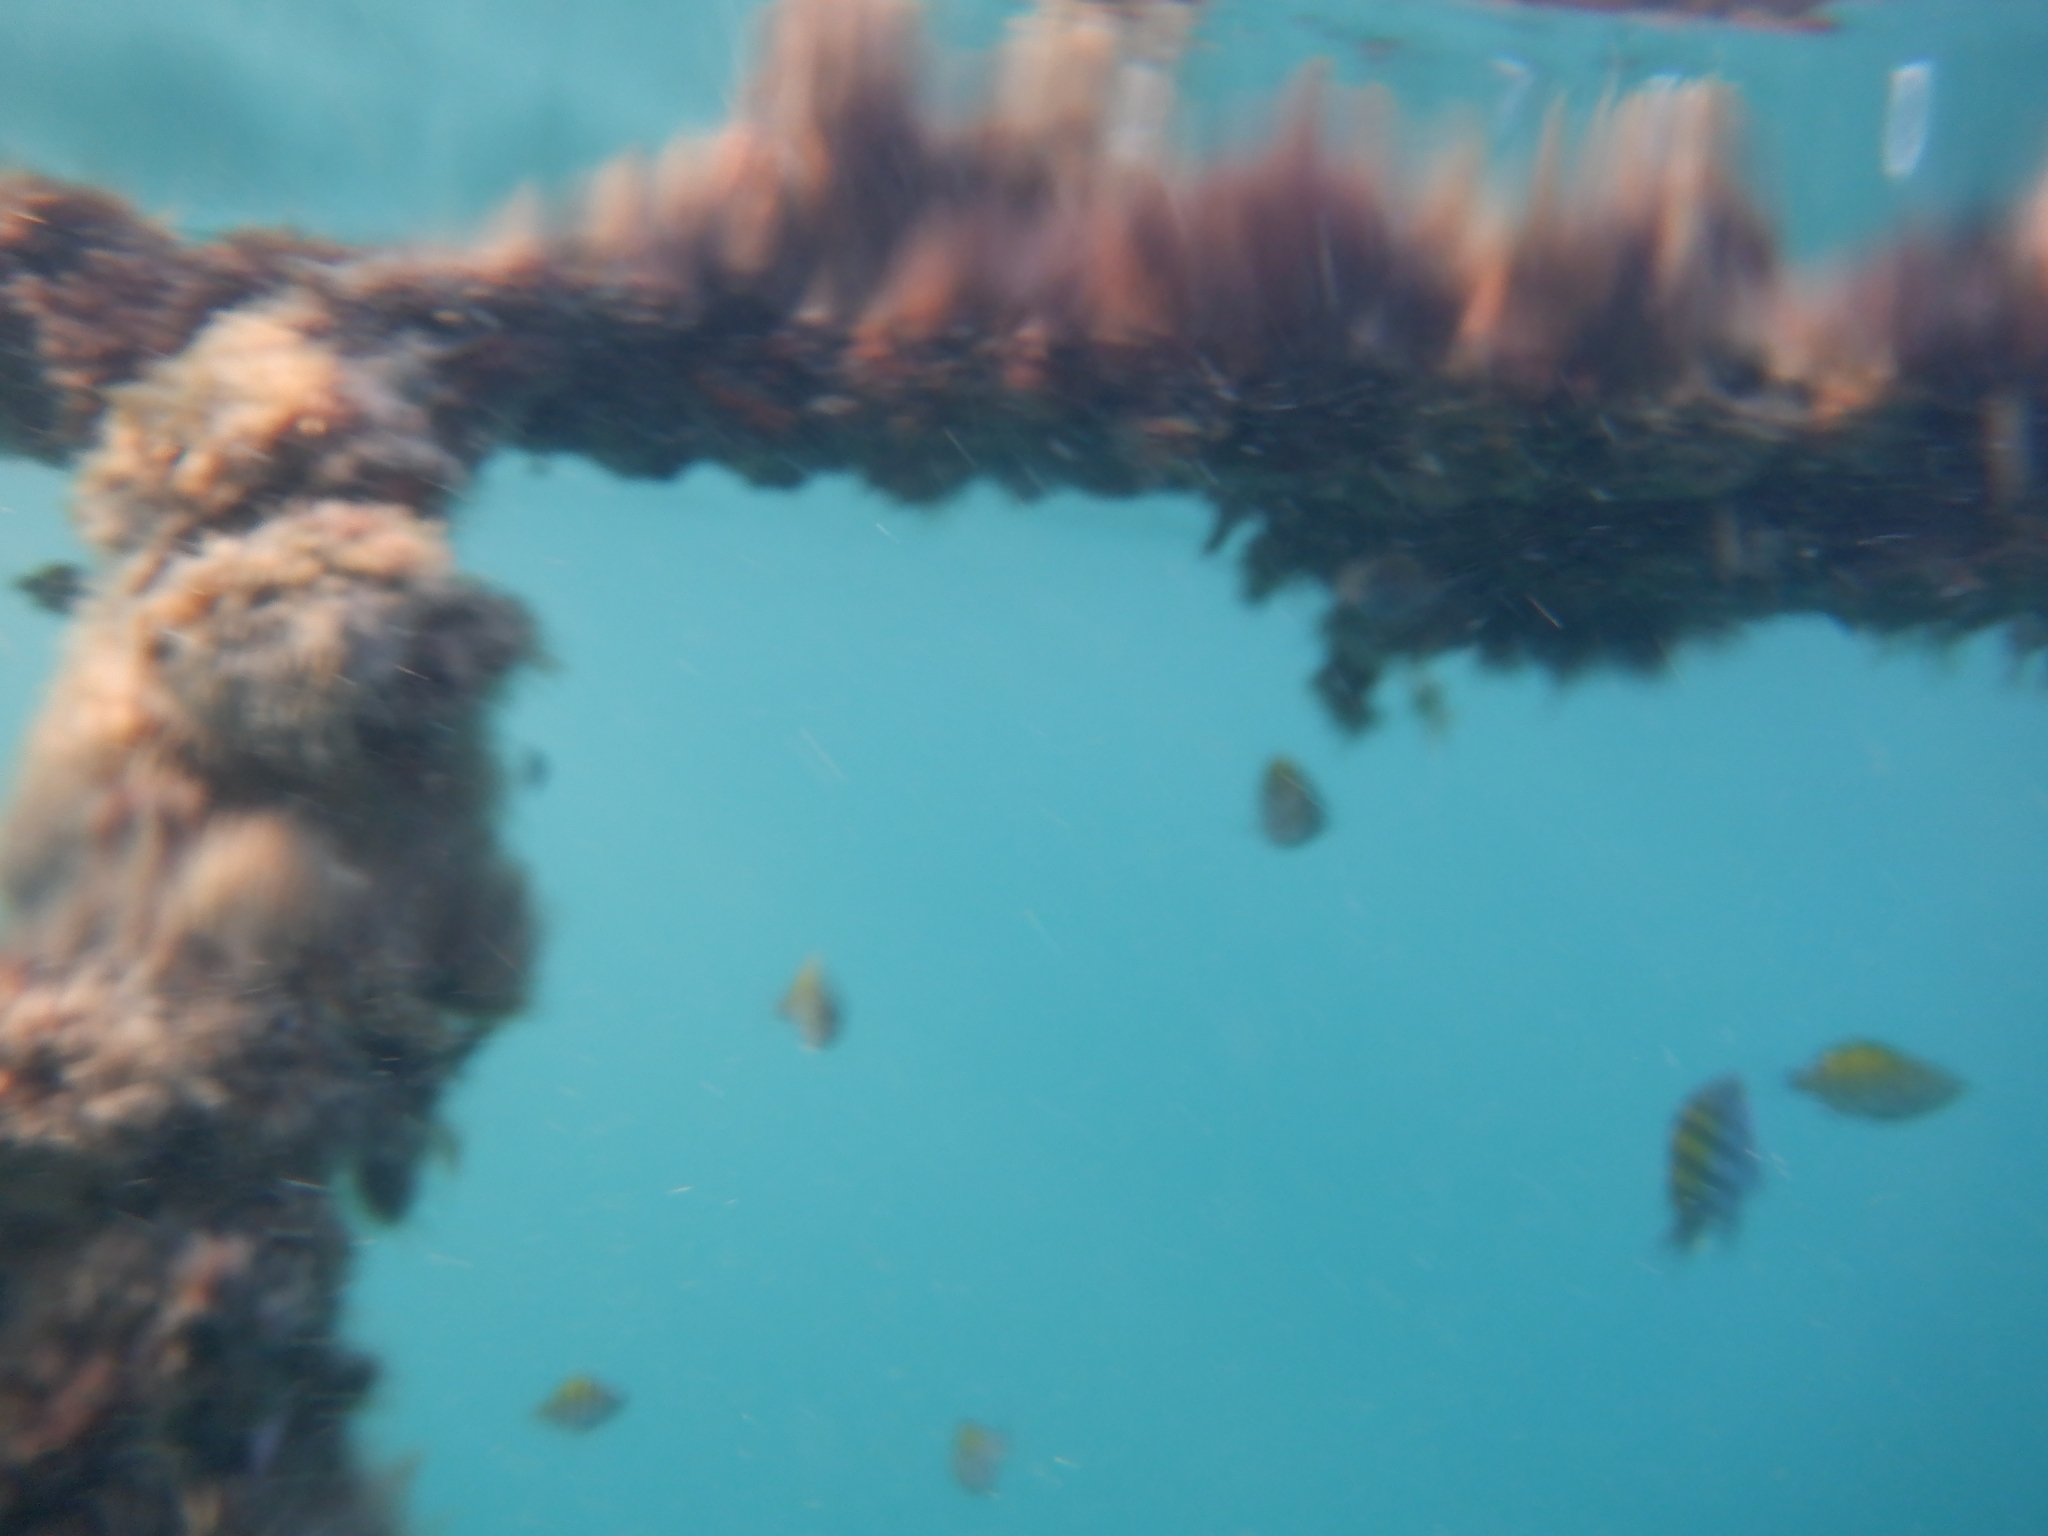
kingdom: Animalia
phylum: Chordata
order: Perciformes
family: Pomacentridae
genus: Abudefduf
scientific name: Abudefduf troschelii
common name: Panamic sergeant major
